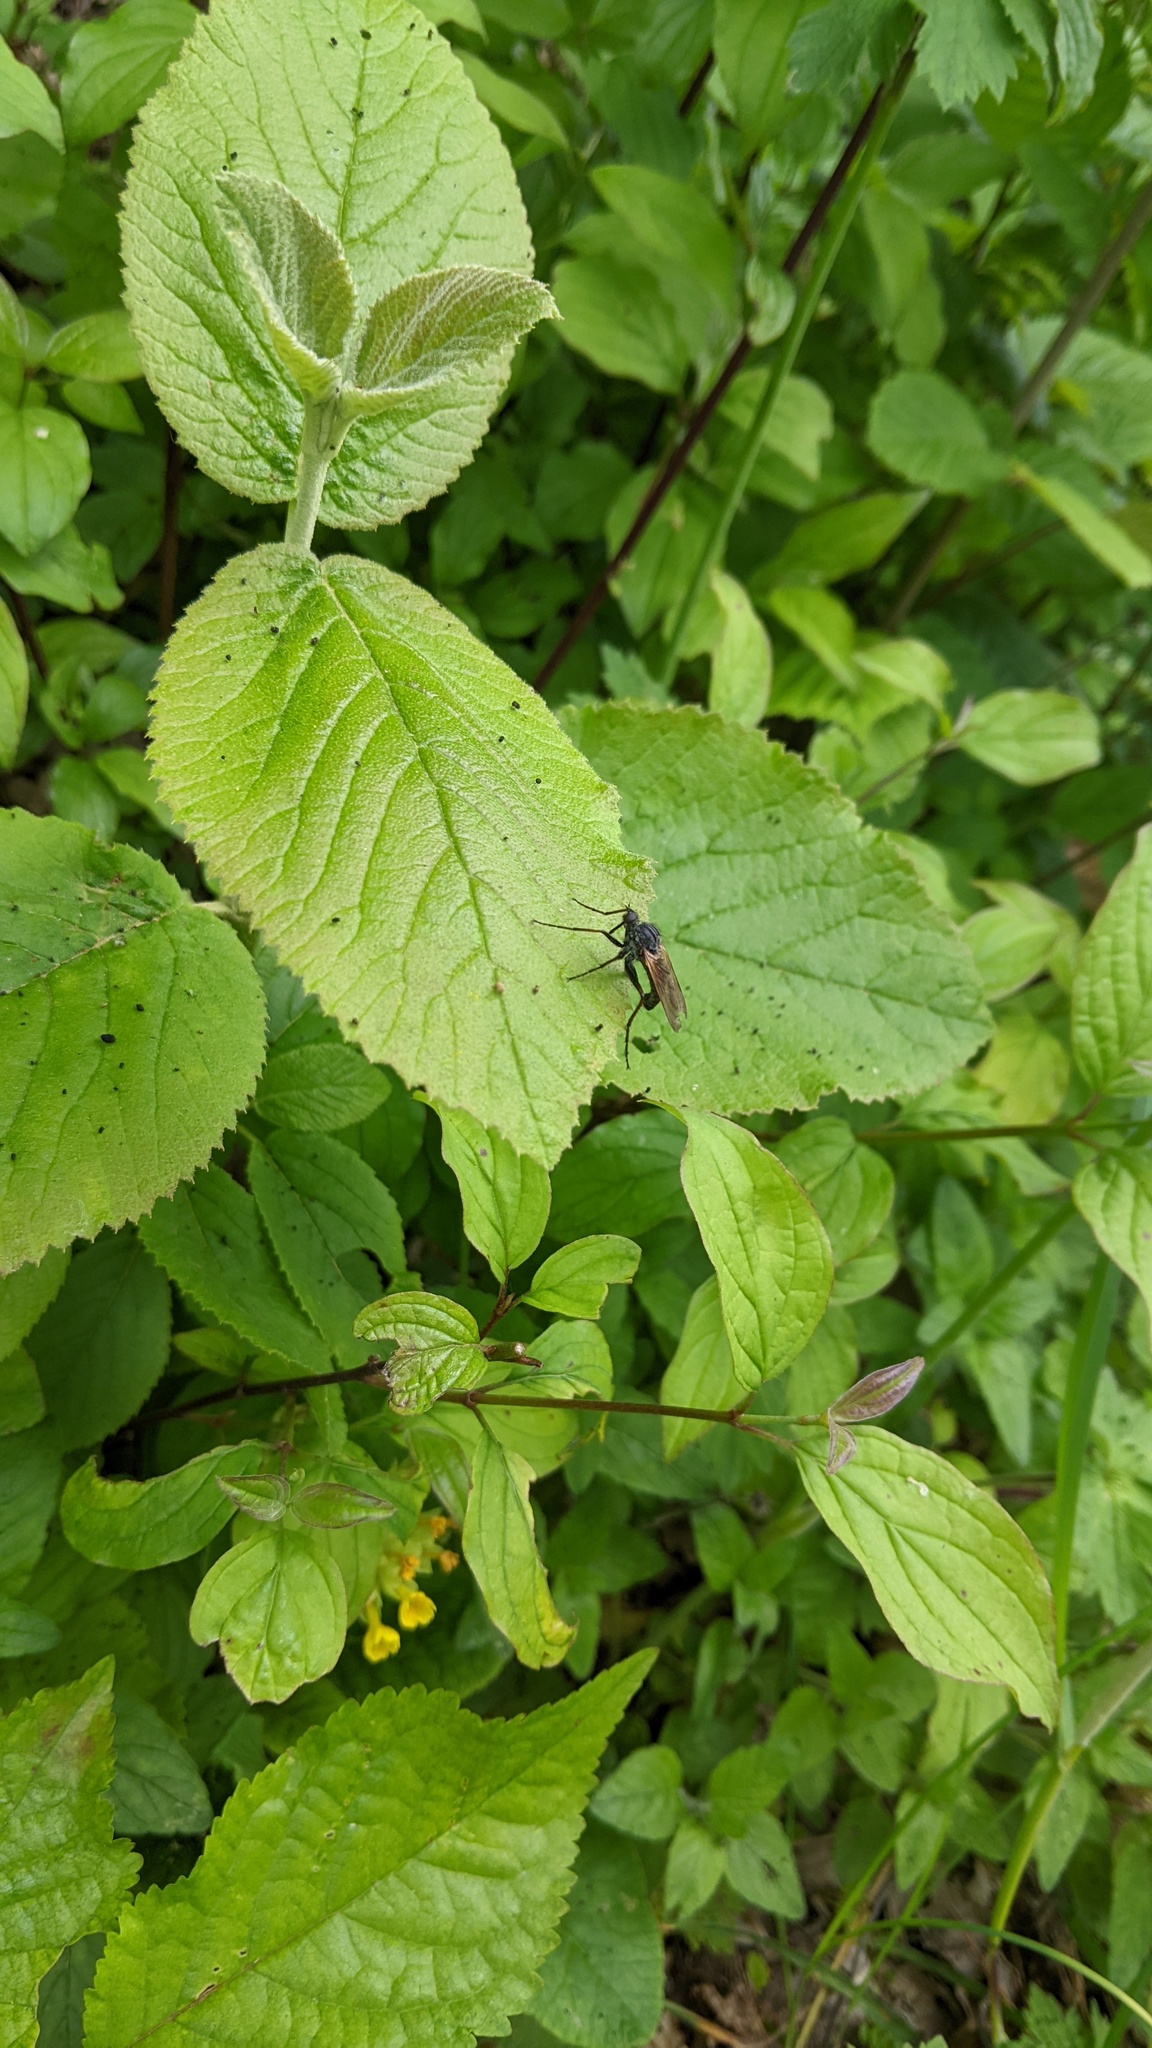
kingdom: Animalia
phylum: Arthropoda
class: Insecta
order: Diptera
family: Empididae
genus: Empis
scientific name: Empis tessellata
